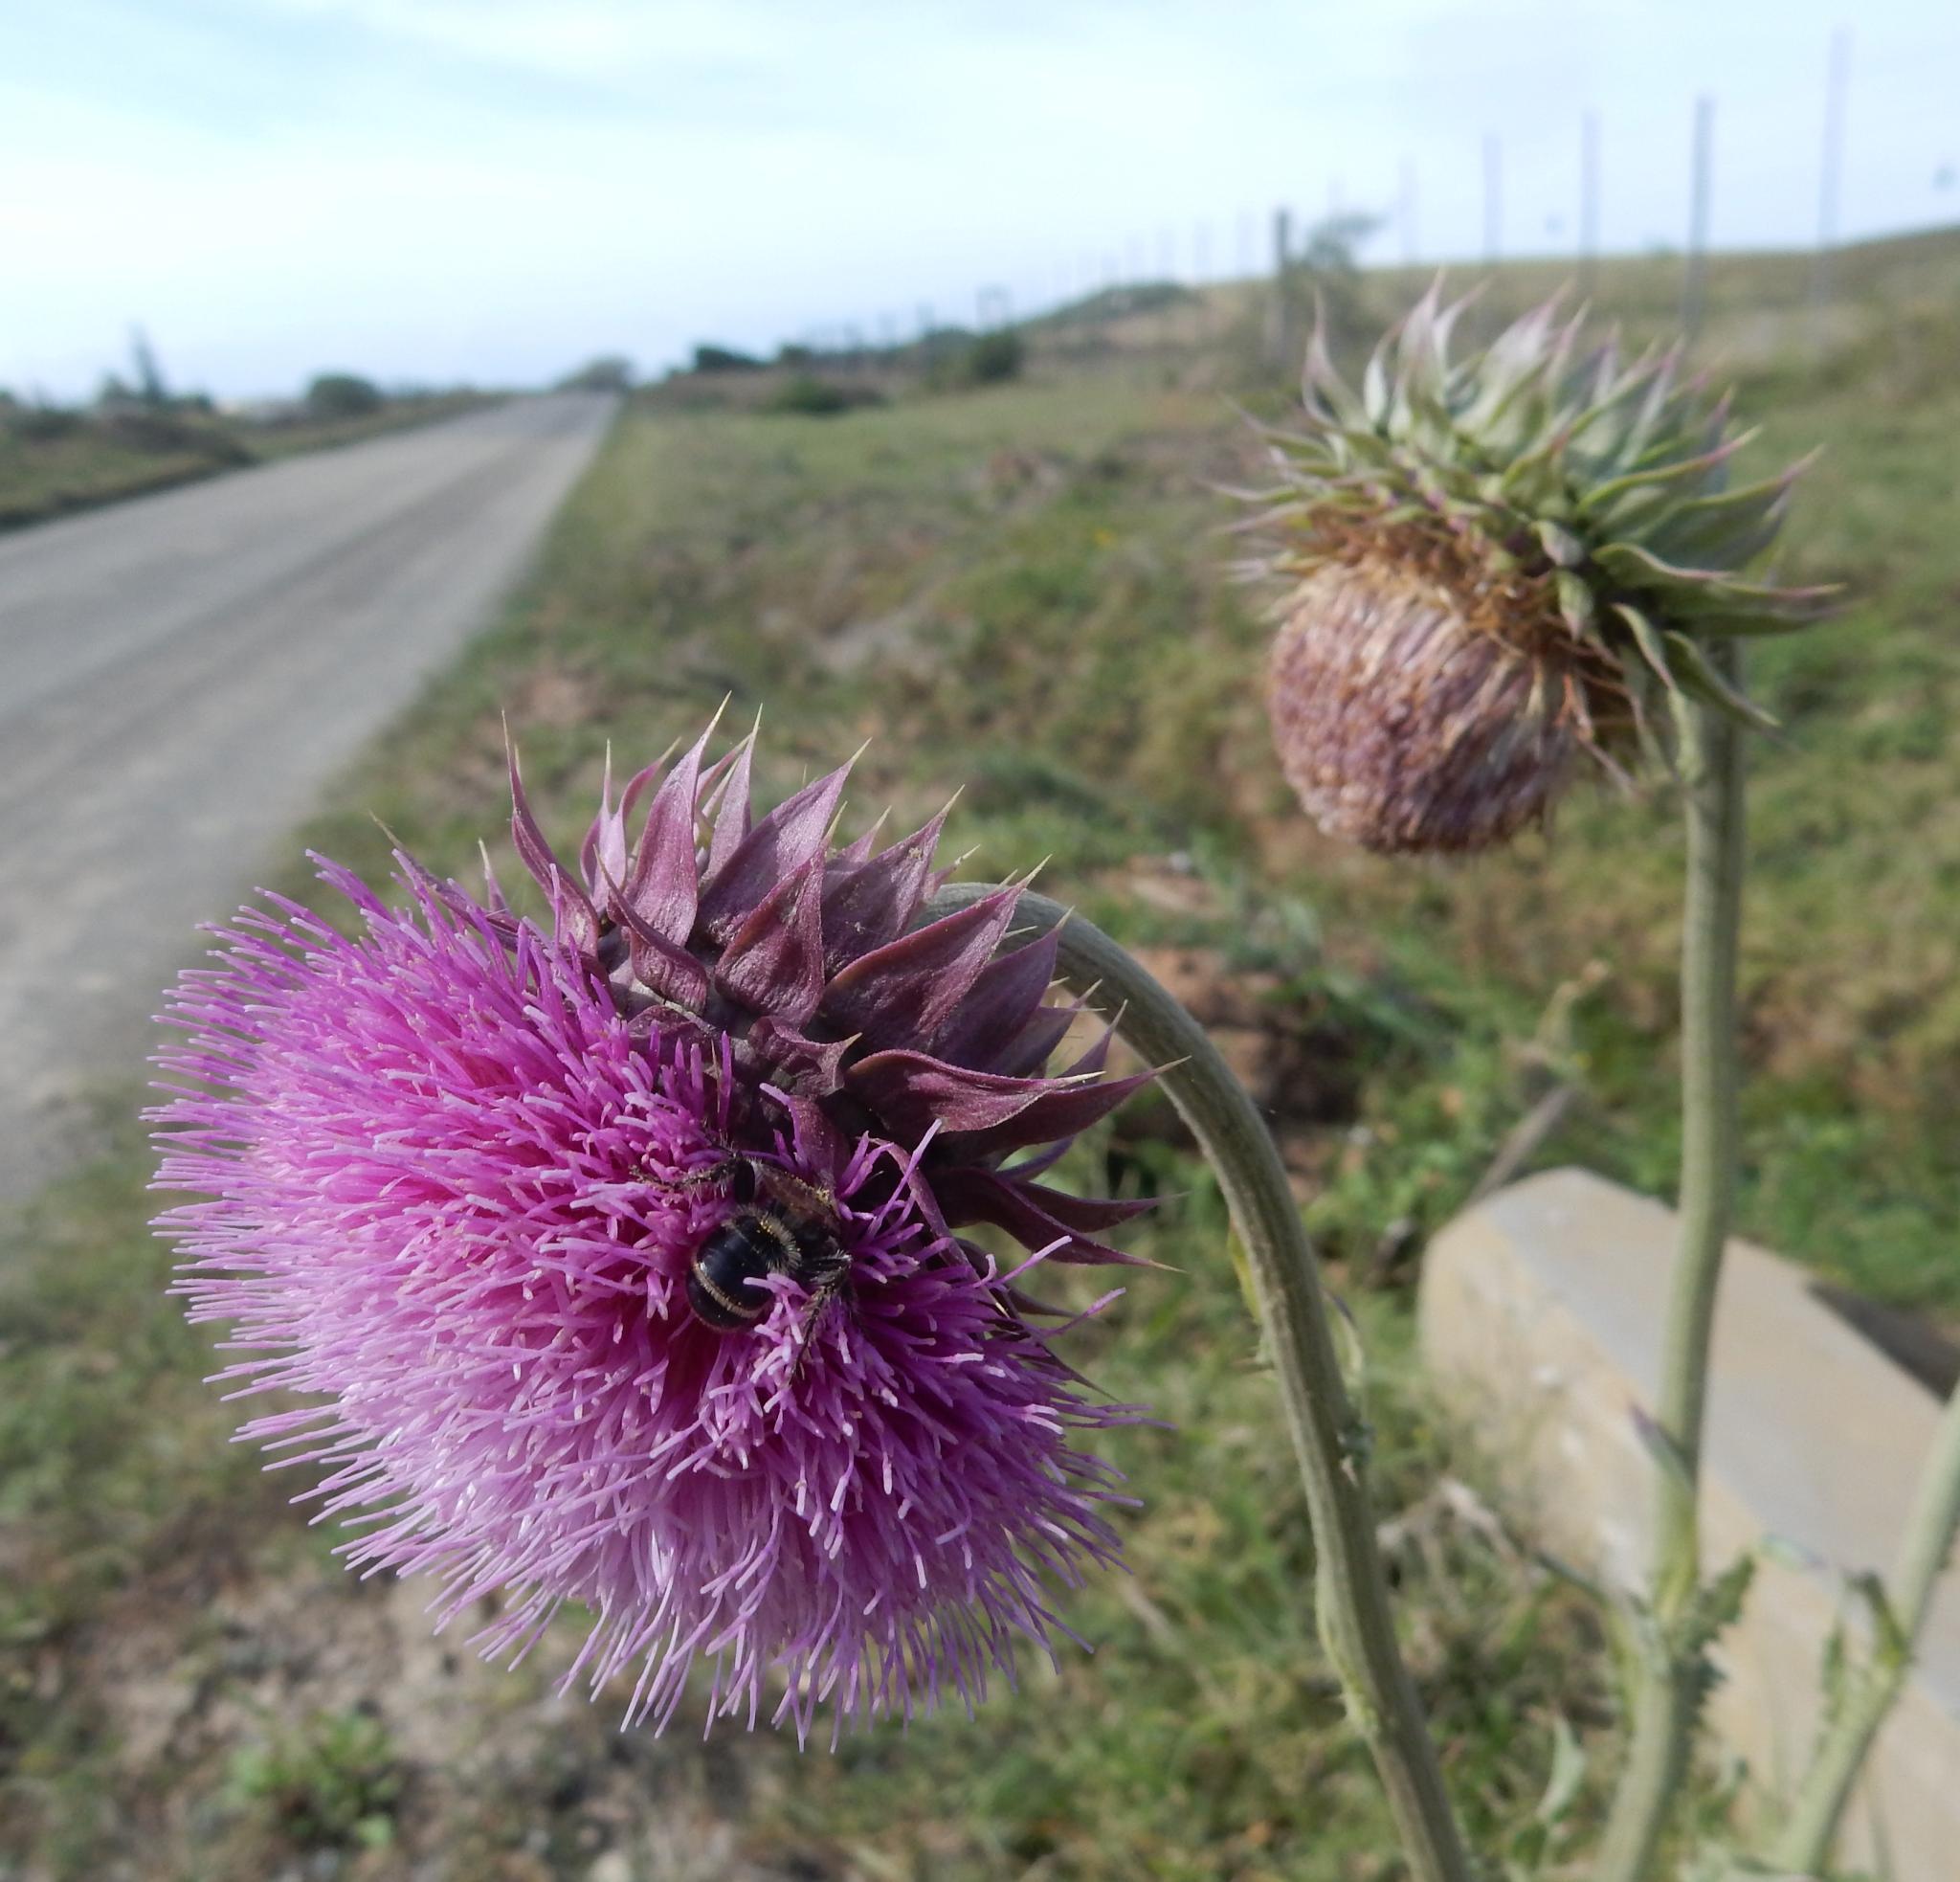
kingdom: Plantae
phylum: Tracheophyta
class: Magnoliopsida
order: Asterales
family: Asteraceae
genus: Carduus
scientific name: Carduus nutans
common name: Musk thistle
